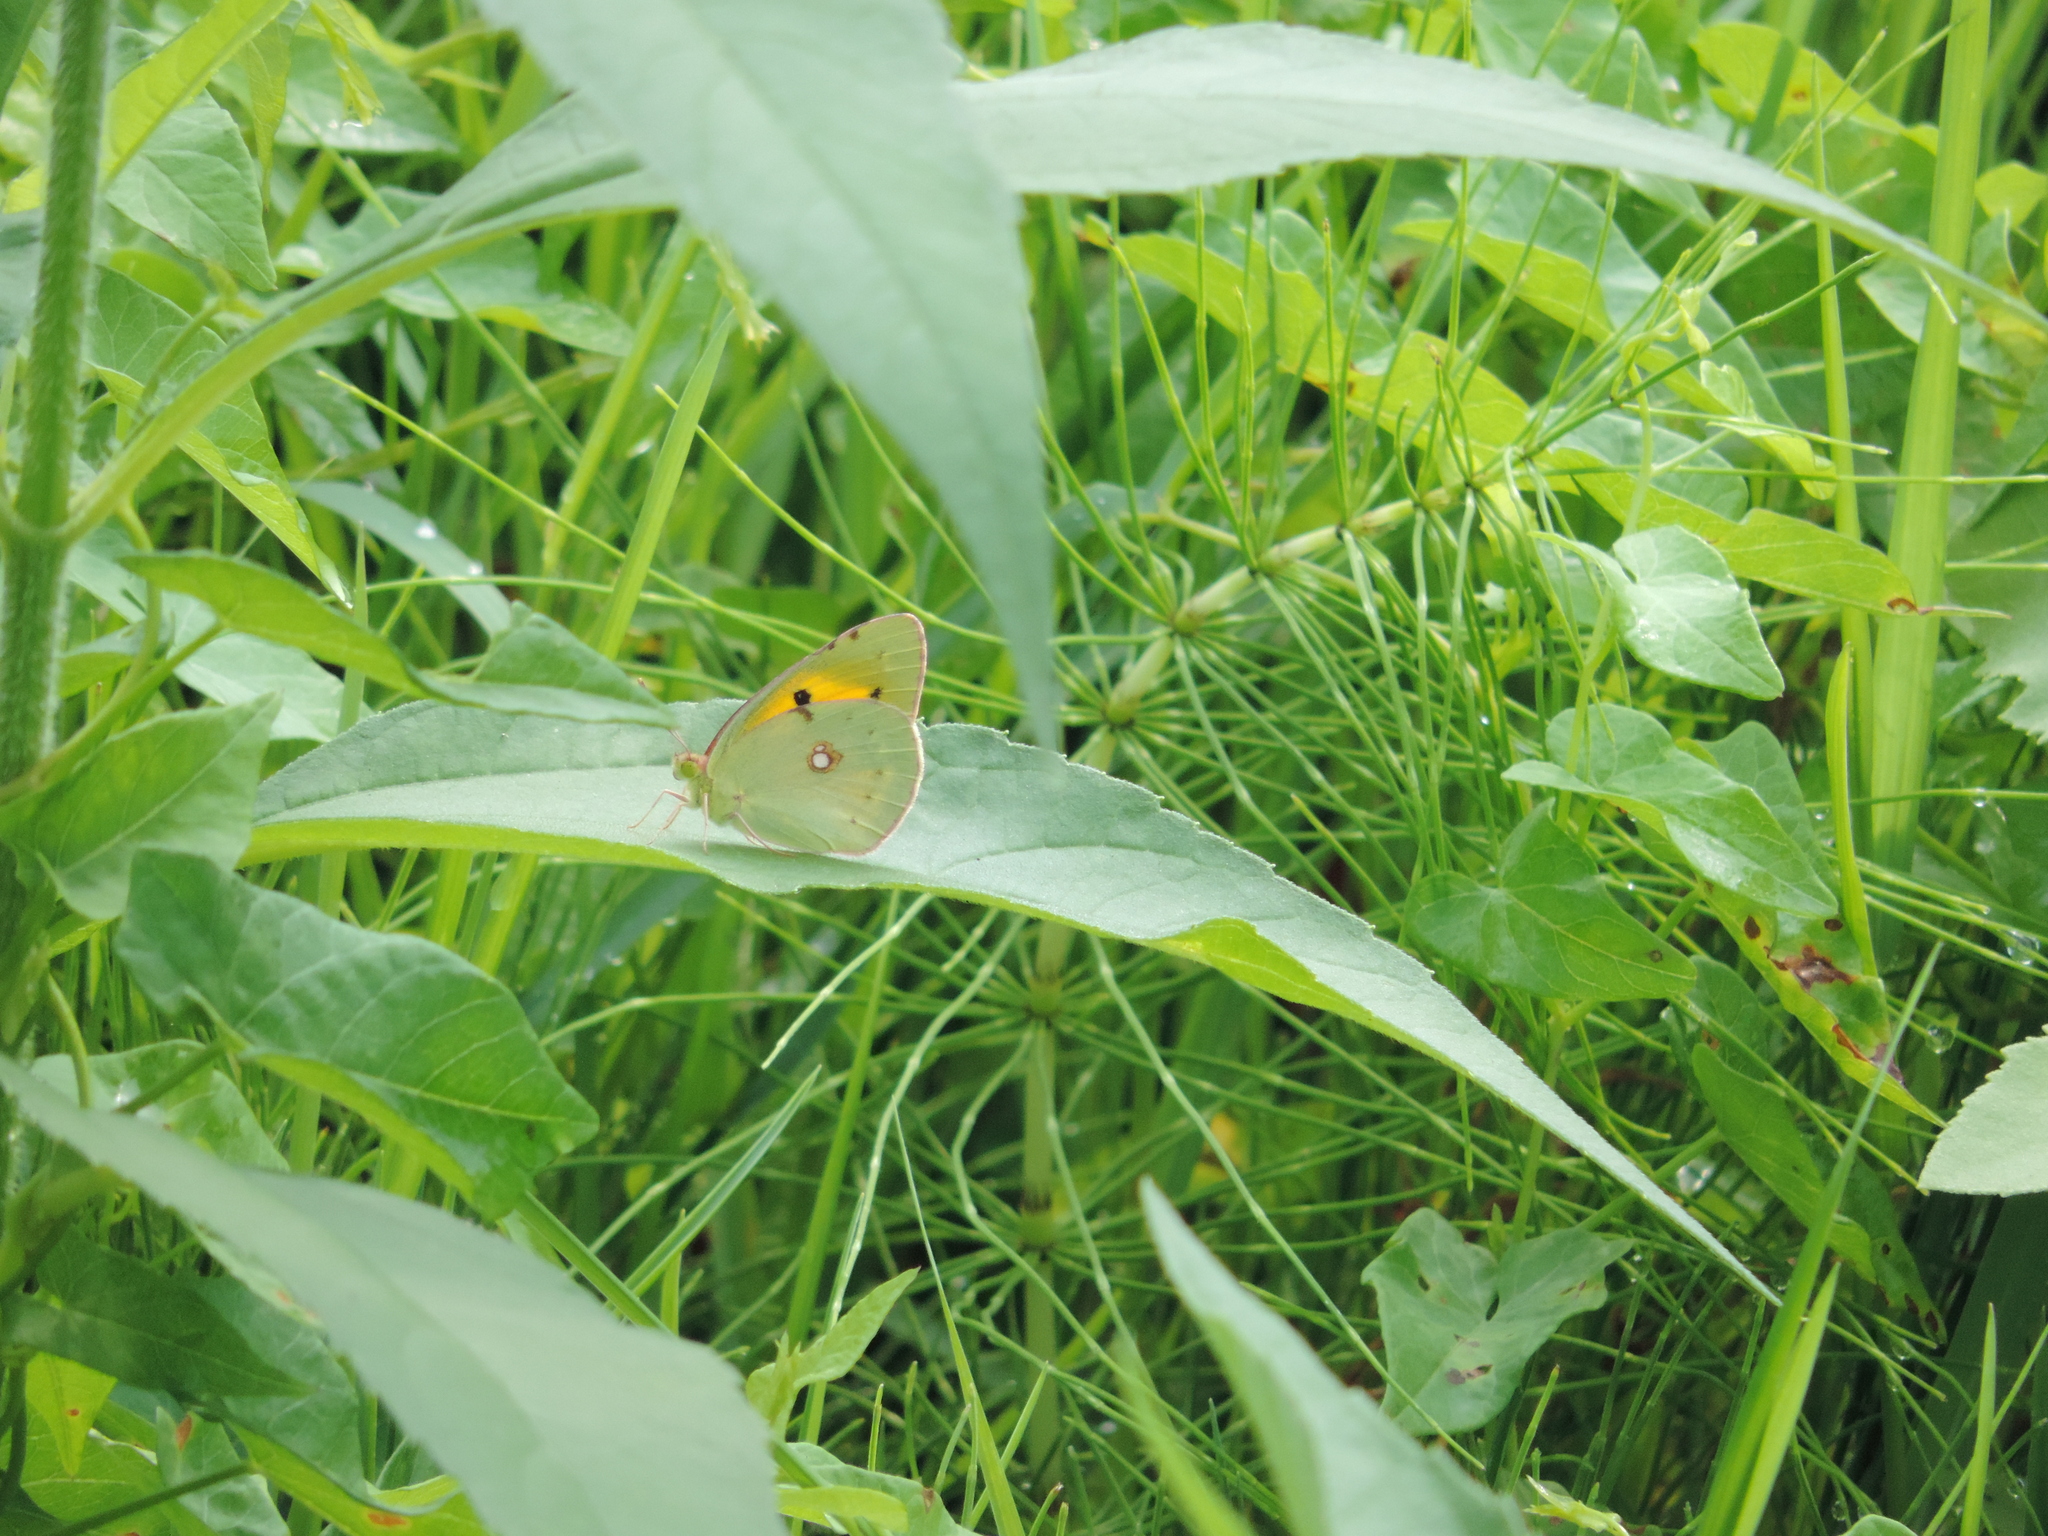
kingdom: Animalia
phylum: Arthropoda
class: Insecta
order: Lepidoptera
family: Pieridae
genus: Colias
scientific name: Colias croceus
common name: Clouded yellow
